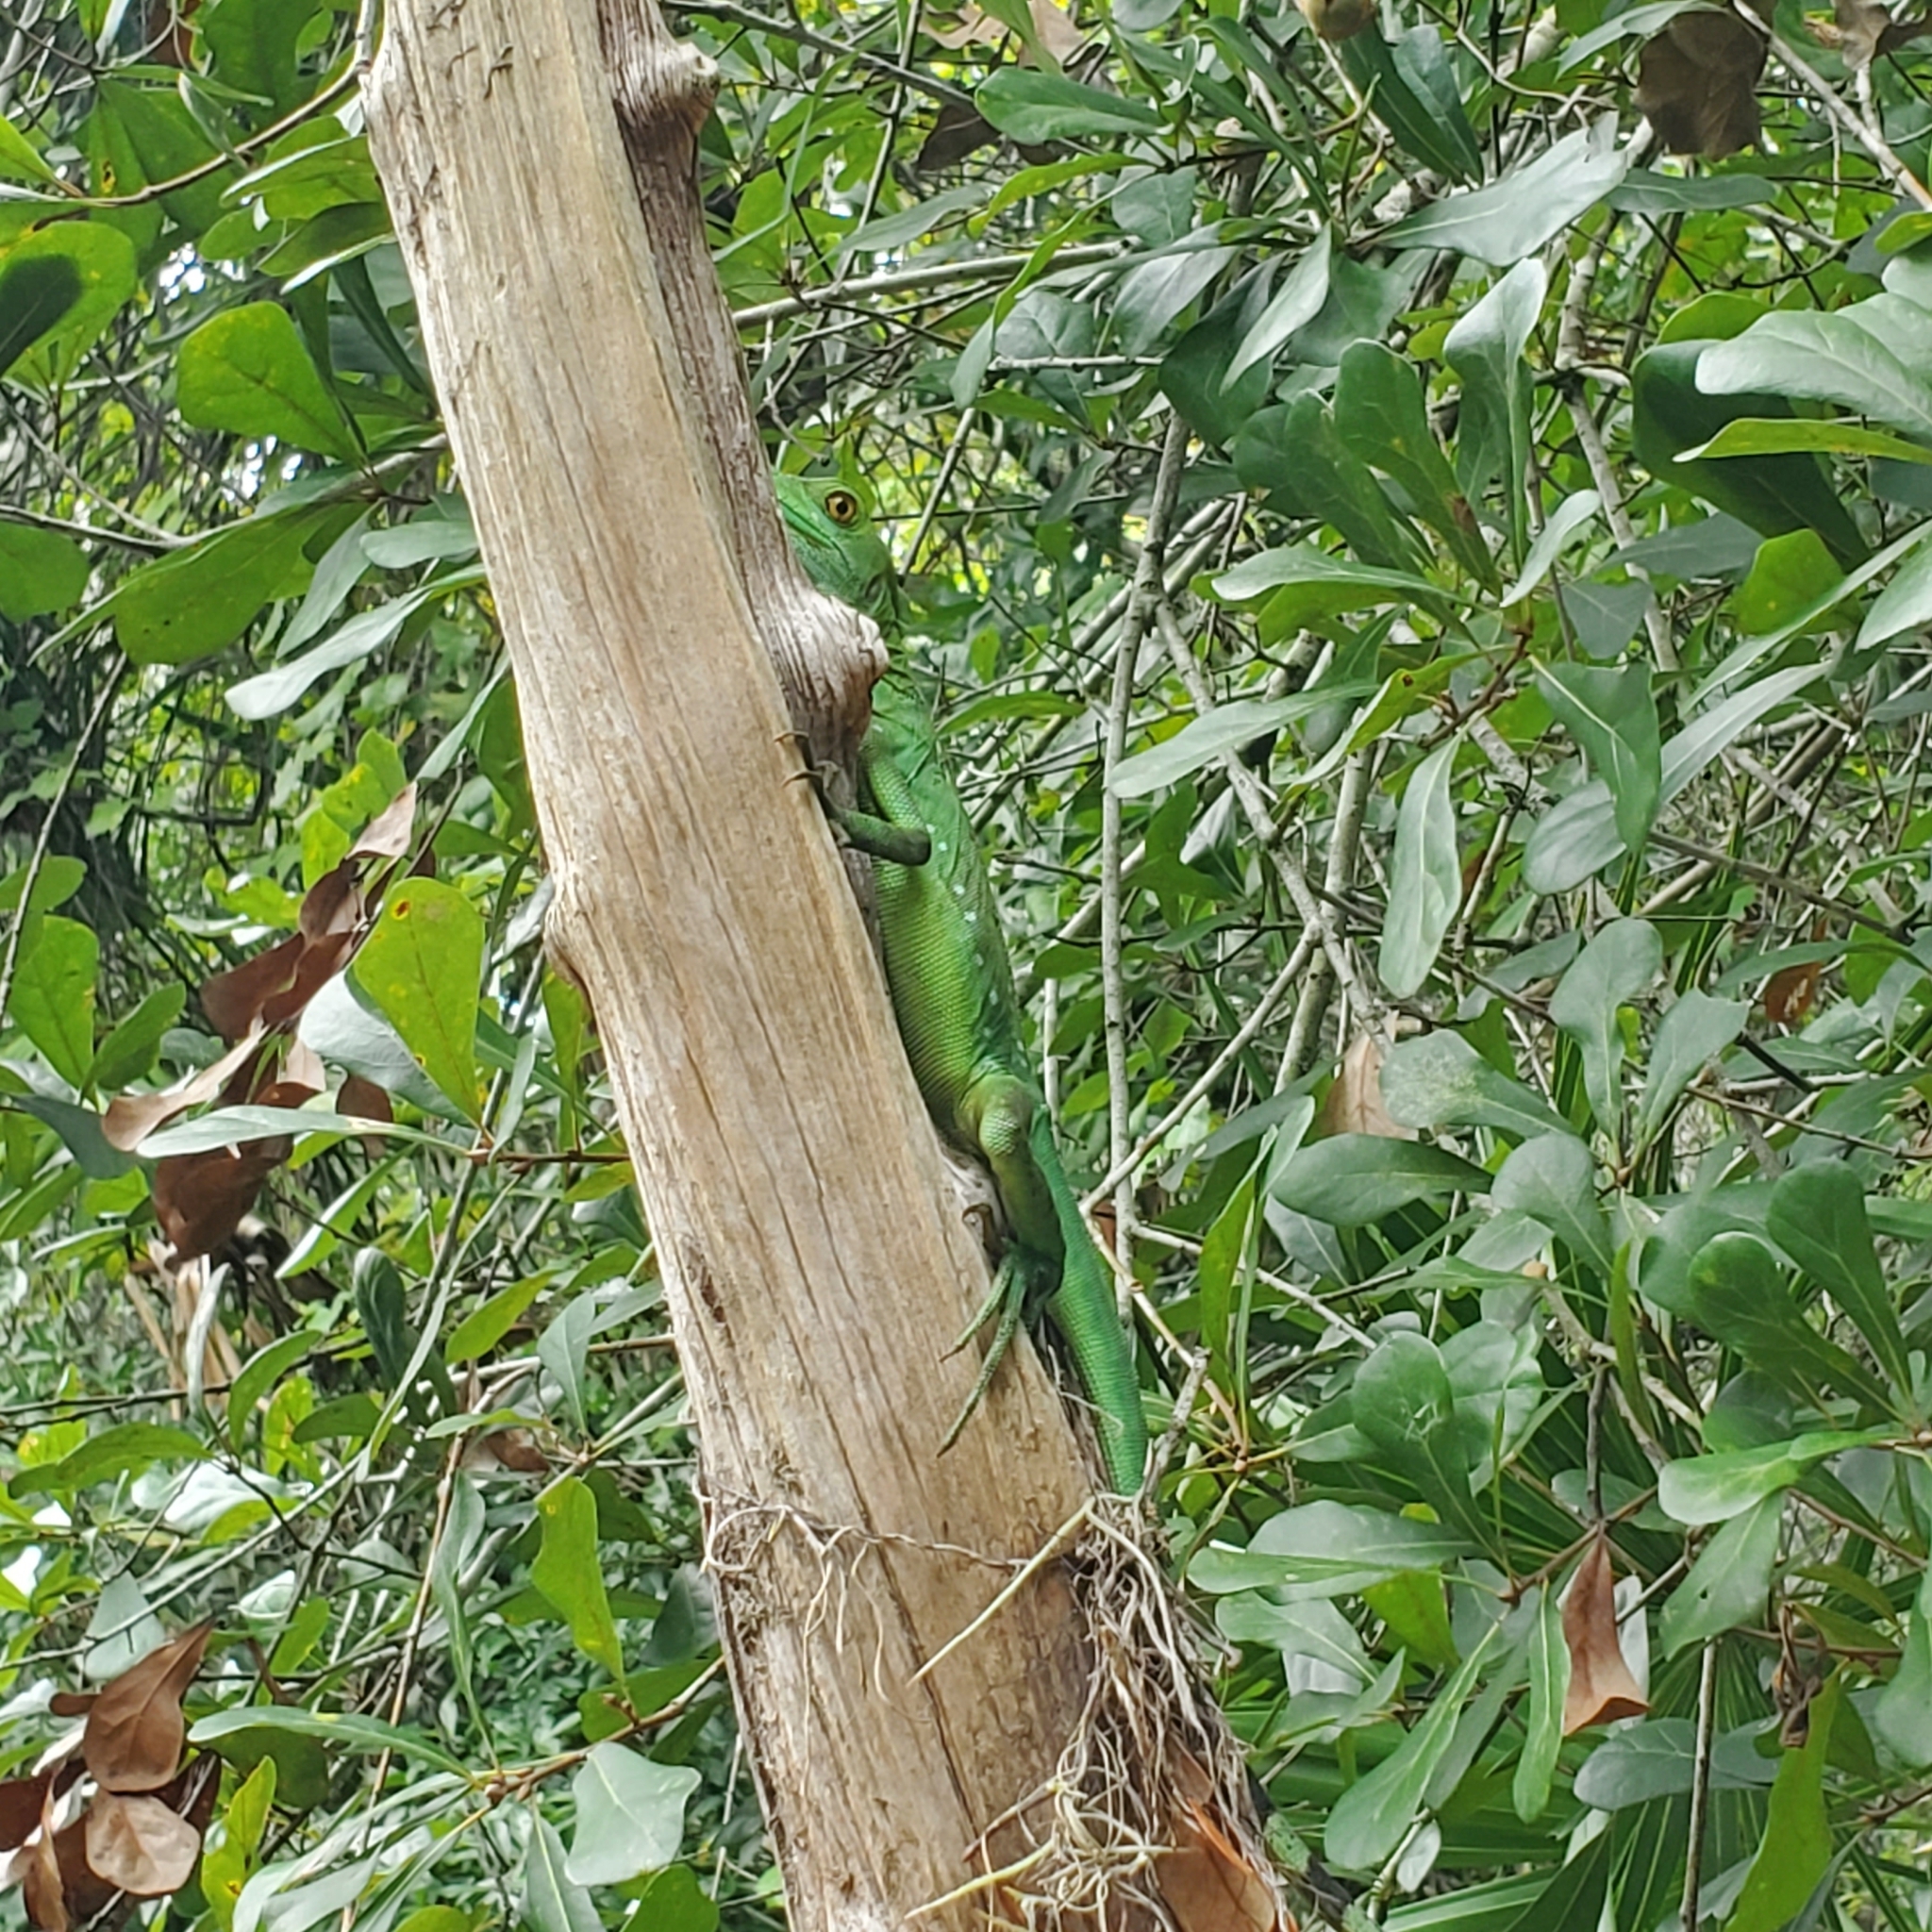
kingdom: Animalia
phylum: Chordata
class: Squamata
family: Corytophanidae
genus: Basiliscus
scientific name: Basiliscus plumifrons
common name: Green basilisk
